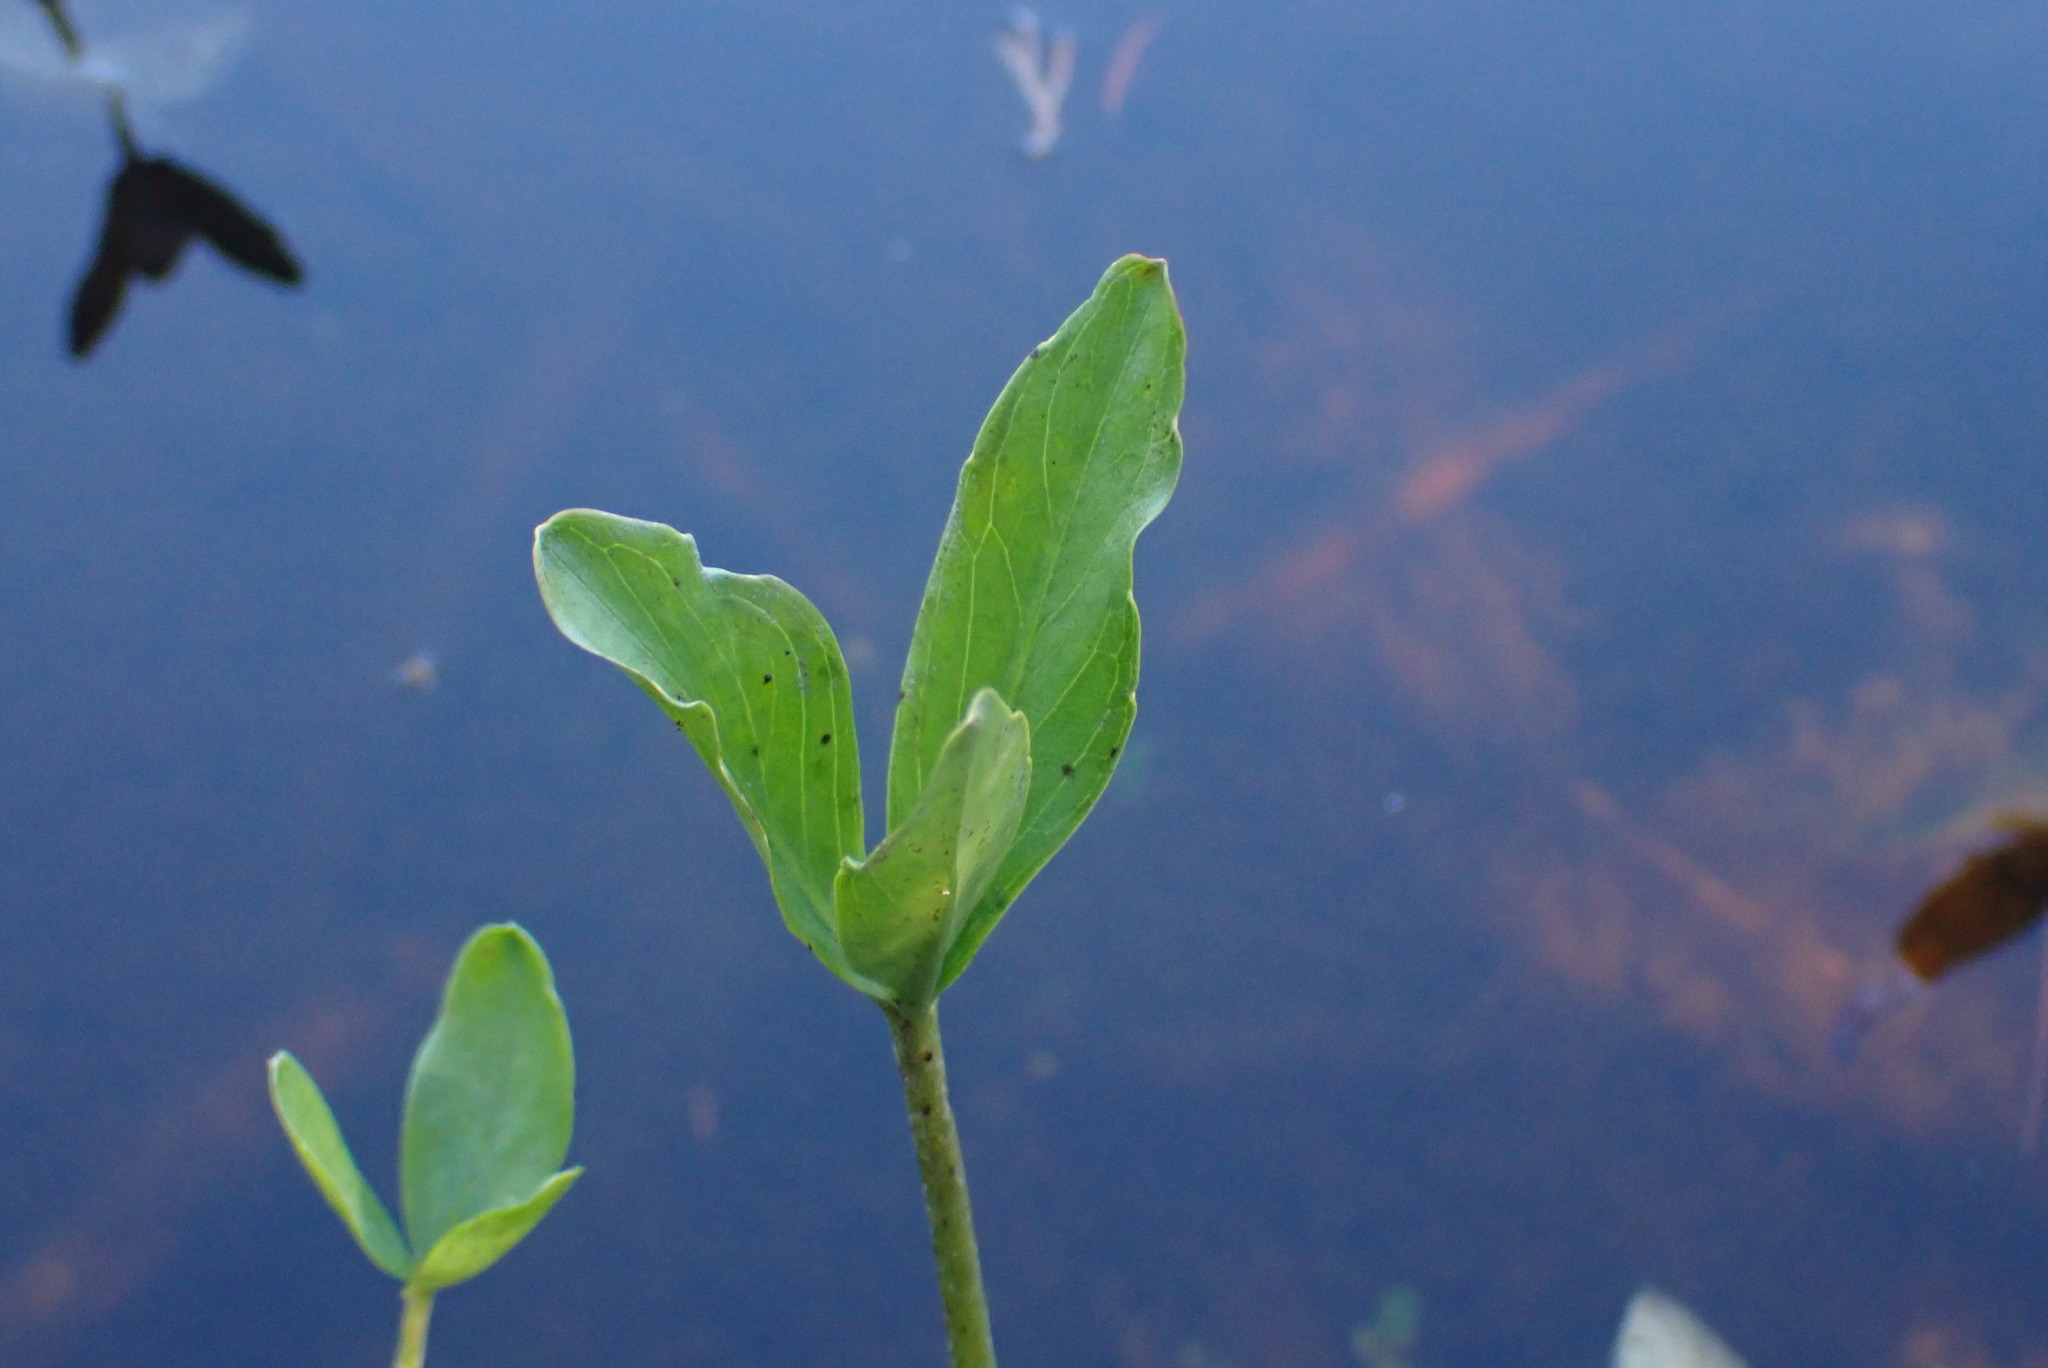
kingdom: Plantae
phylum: Tracheophyta
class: Magnoliopsida
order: Asterales
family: Menyanthaceae
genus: Menyanthes
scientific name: Menyanthes trifoliata
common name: Bogbean
